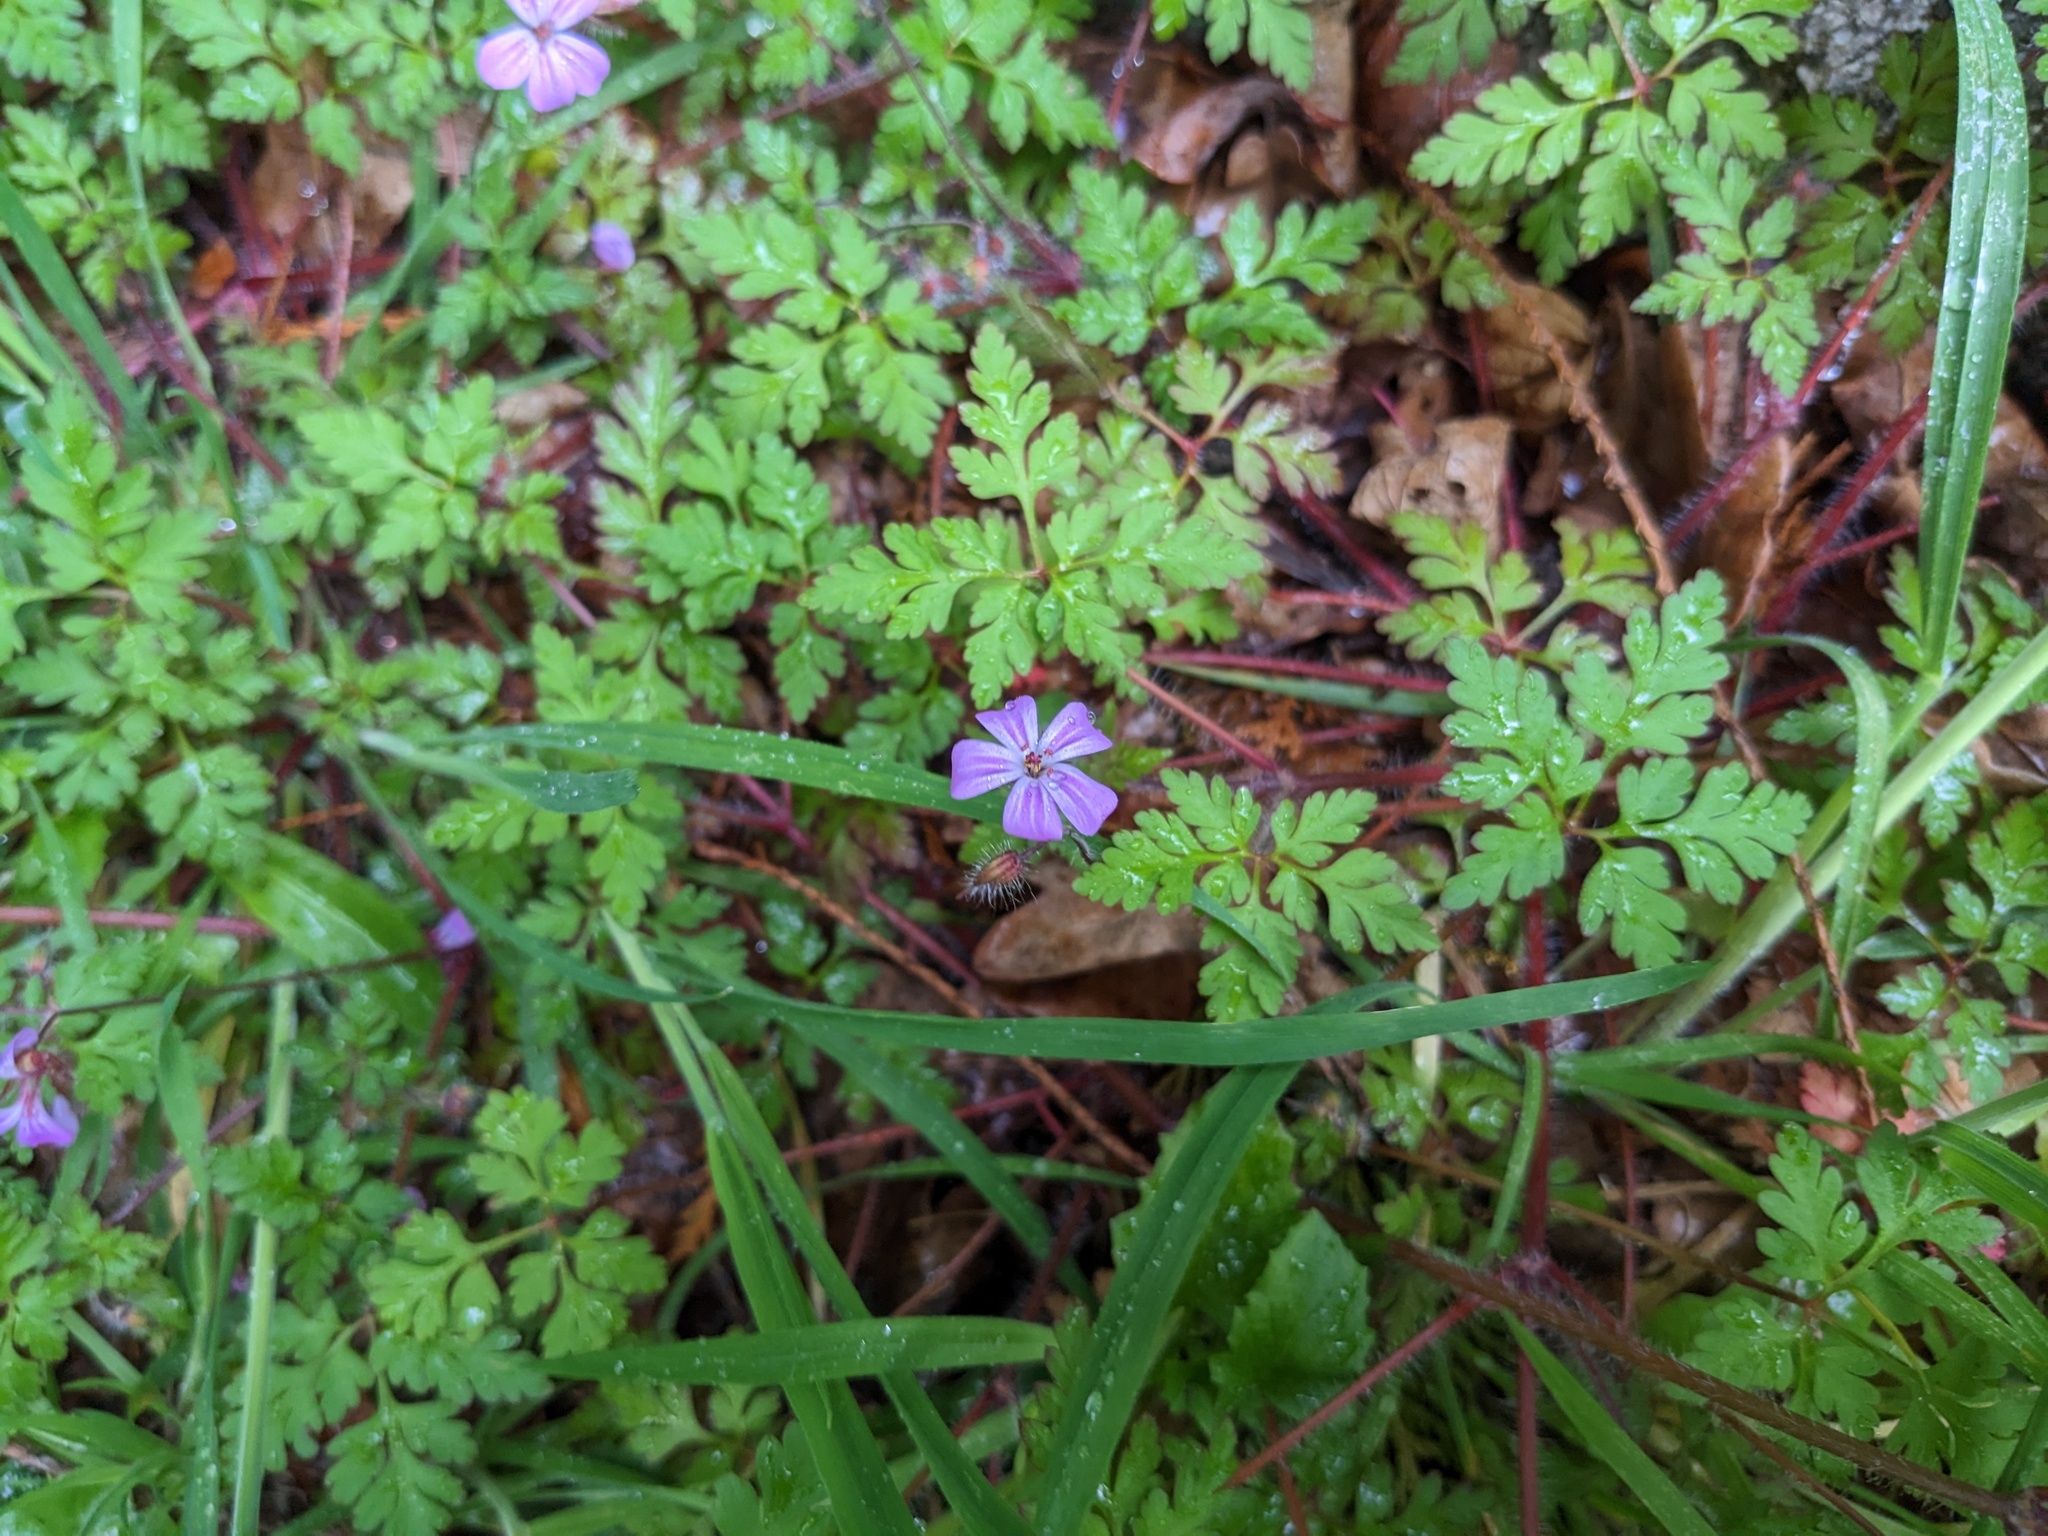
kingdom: Plantae
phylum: Tracheophyta
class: Magnoliopsida
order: Geraniales
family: Geraniaceae
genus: Geranium
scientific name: Geranium robertianum
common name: Herb-robert
